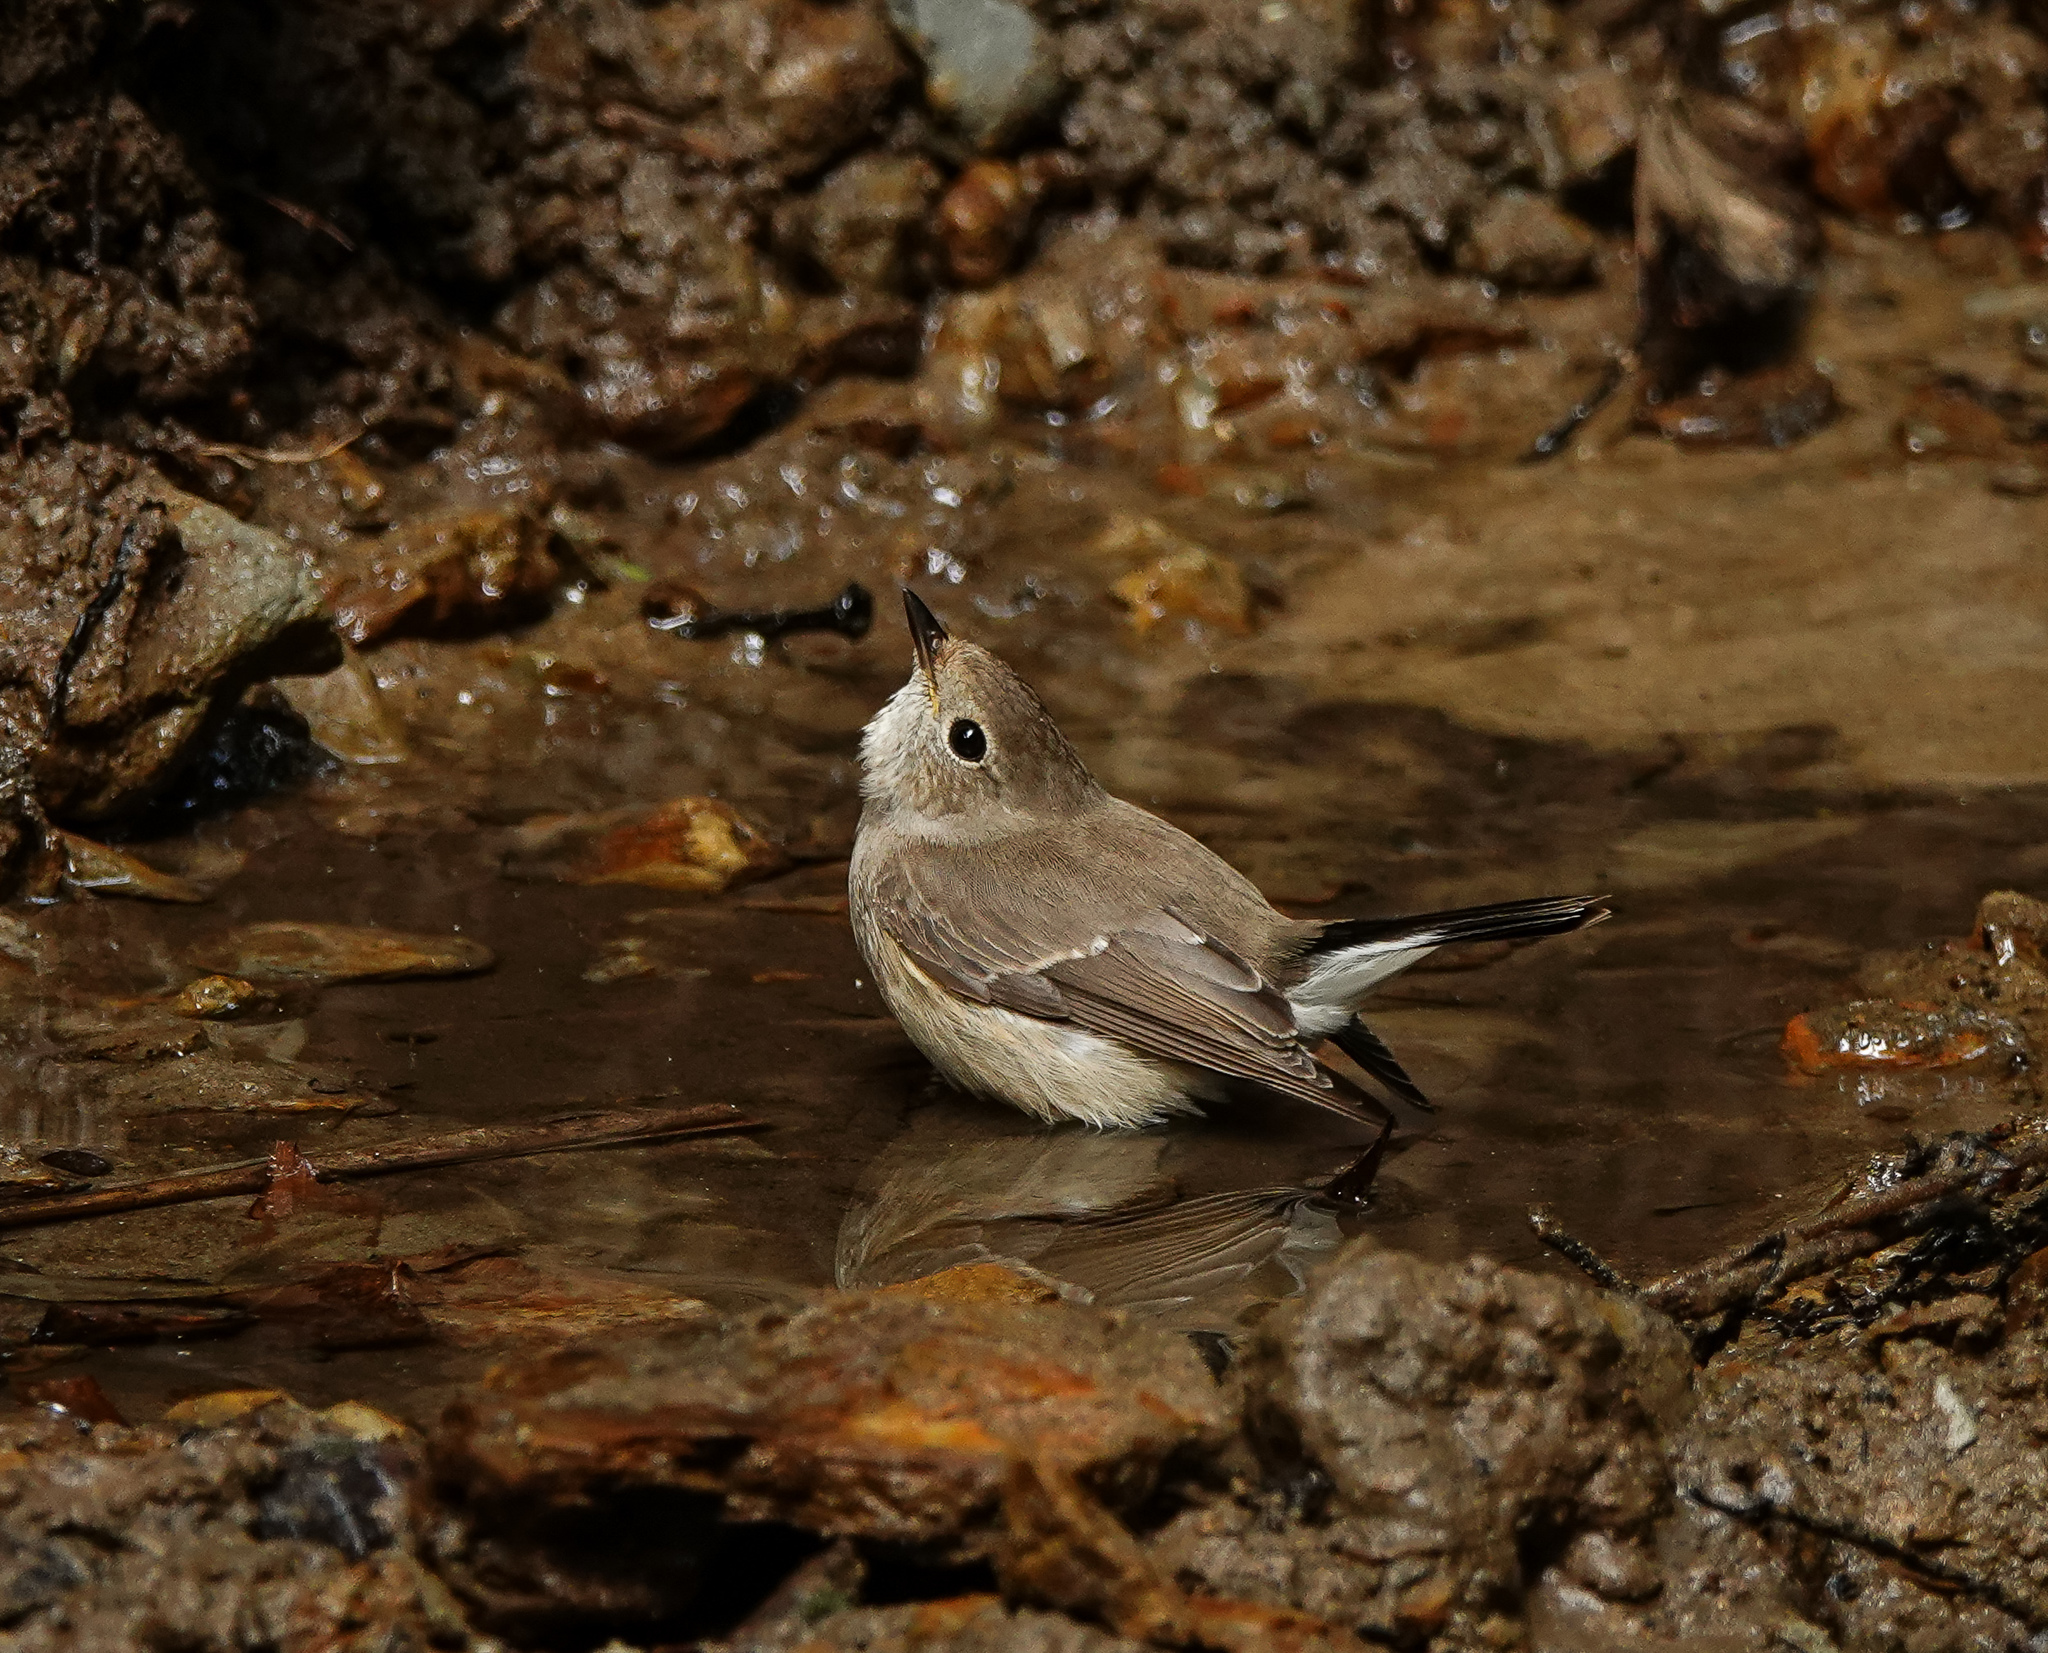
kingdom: Animalia
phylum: Chordata
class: Aves
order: Passeriformes
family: Muscicapidae
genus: Ficedula
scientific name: Ficedula albicilla
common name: Taiga flycatcher
